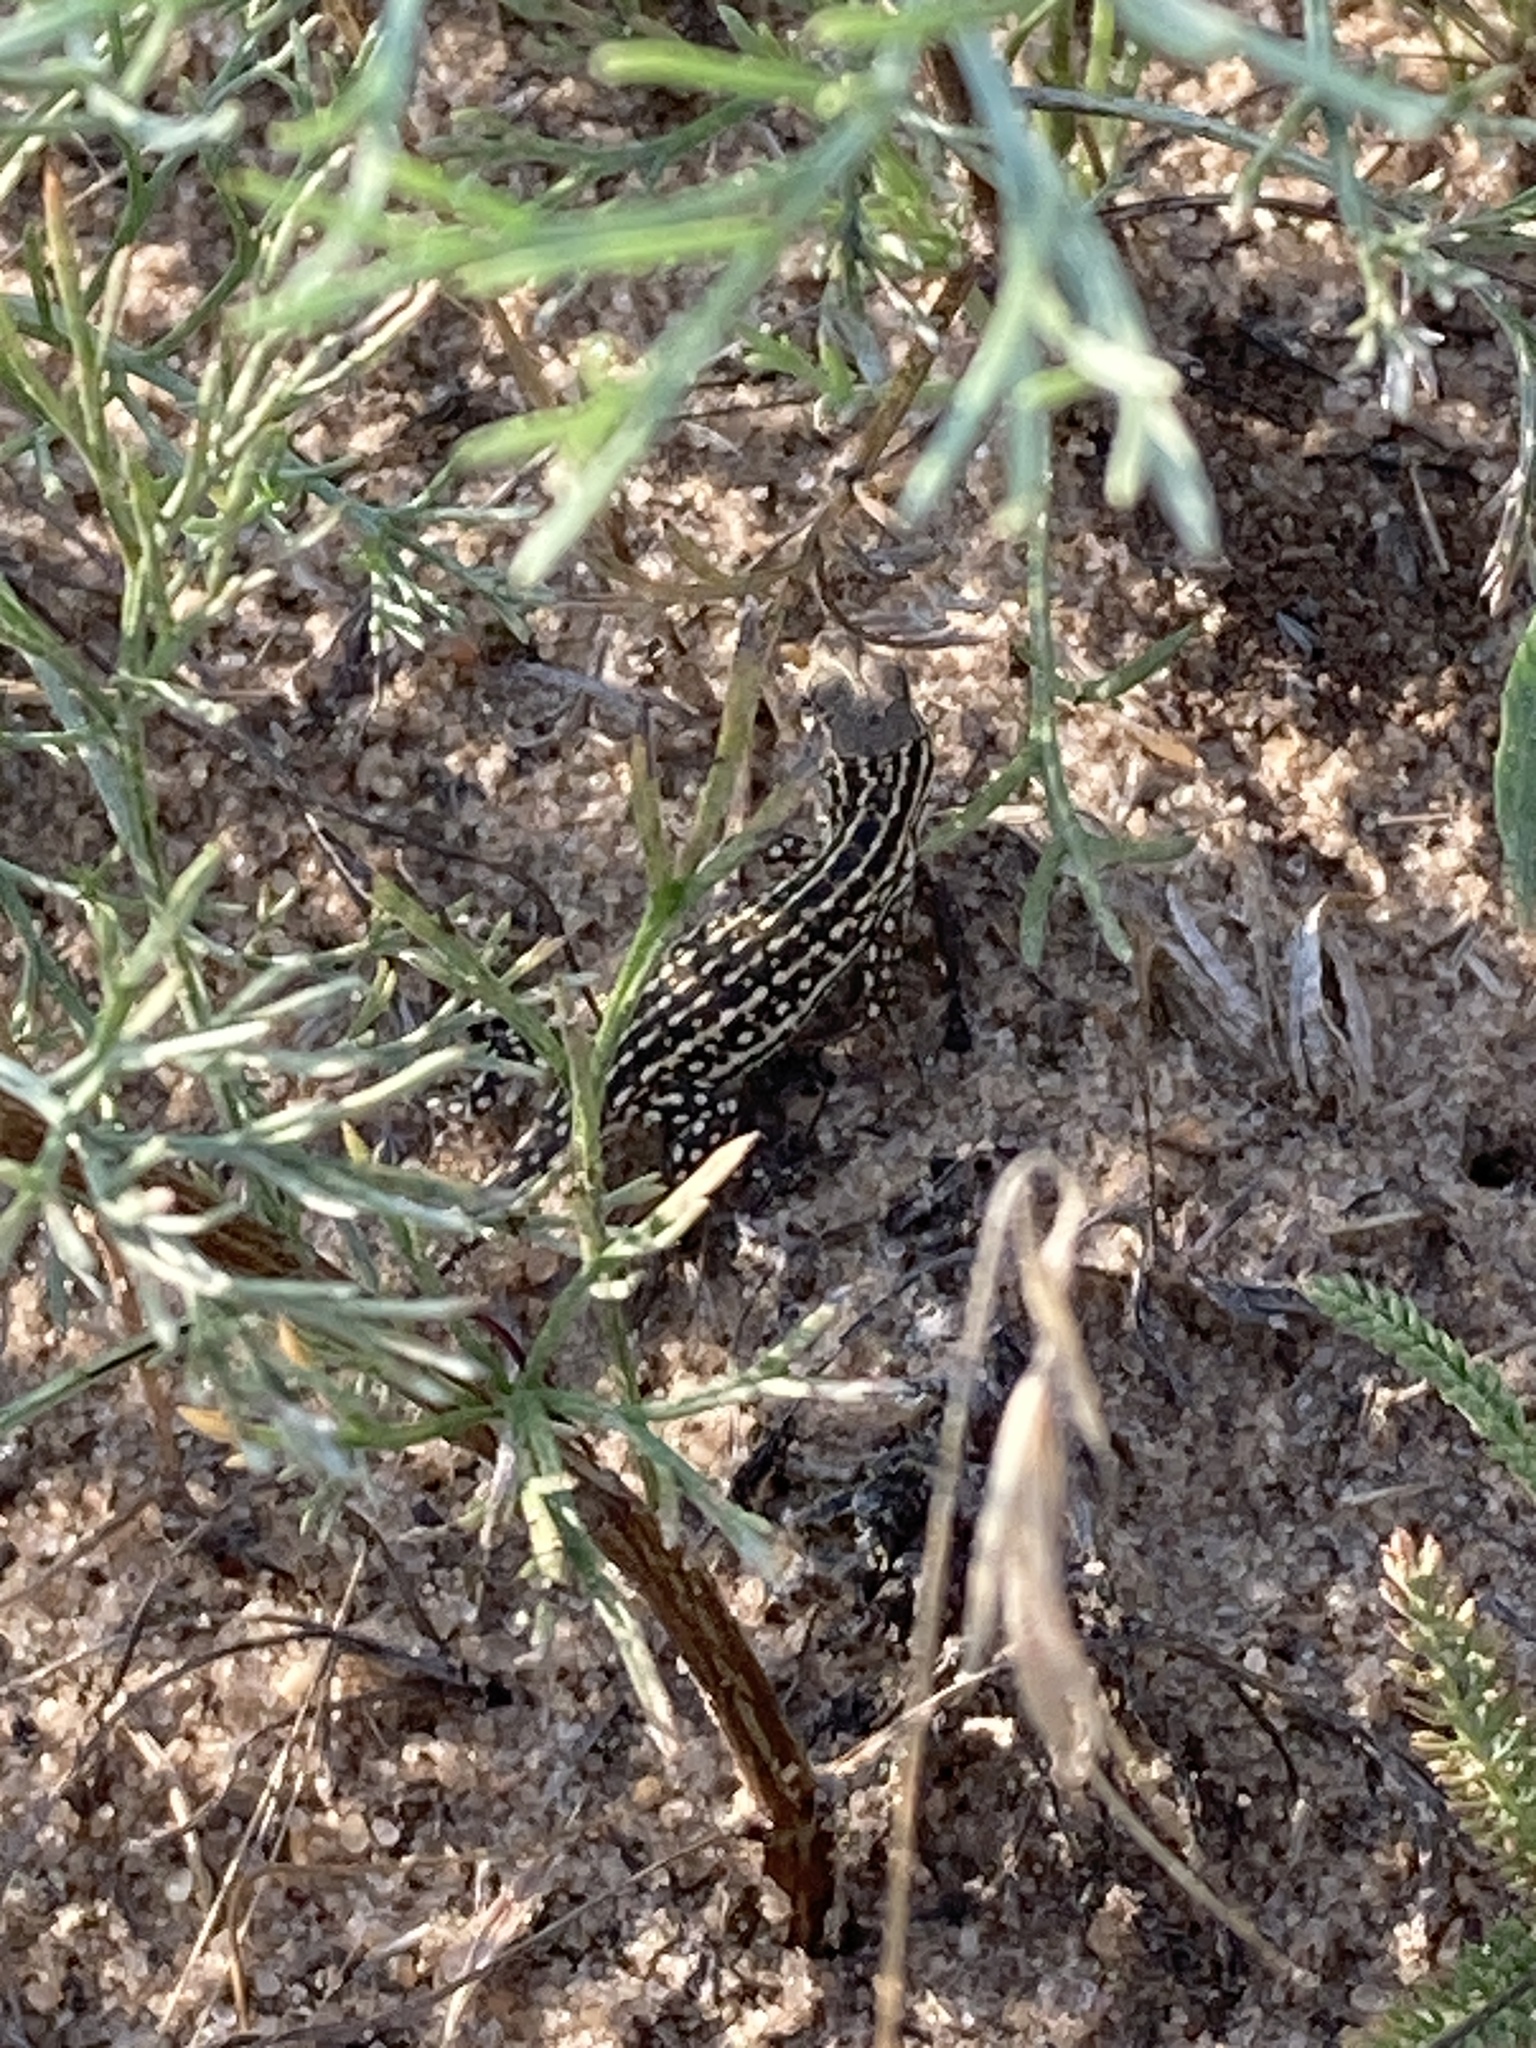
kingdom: Animalia
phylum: Chordata
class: Squamata
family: Lacertidae
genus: Eremias
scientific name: Eremias arguta
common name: Racerunner
